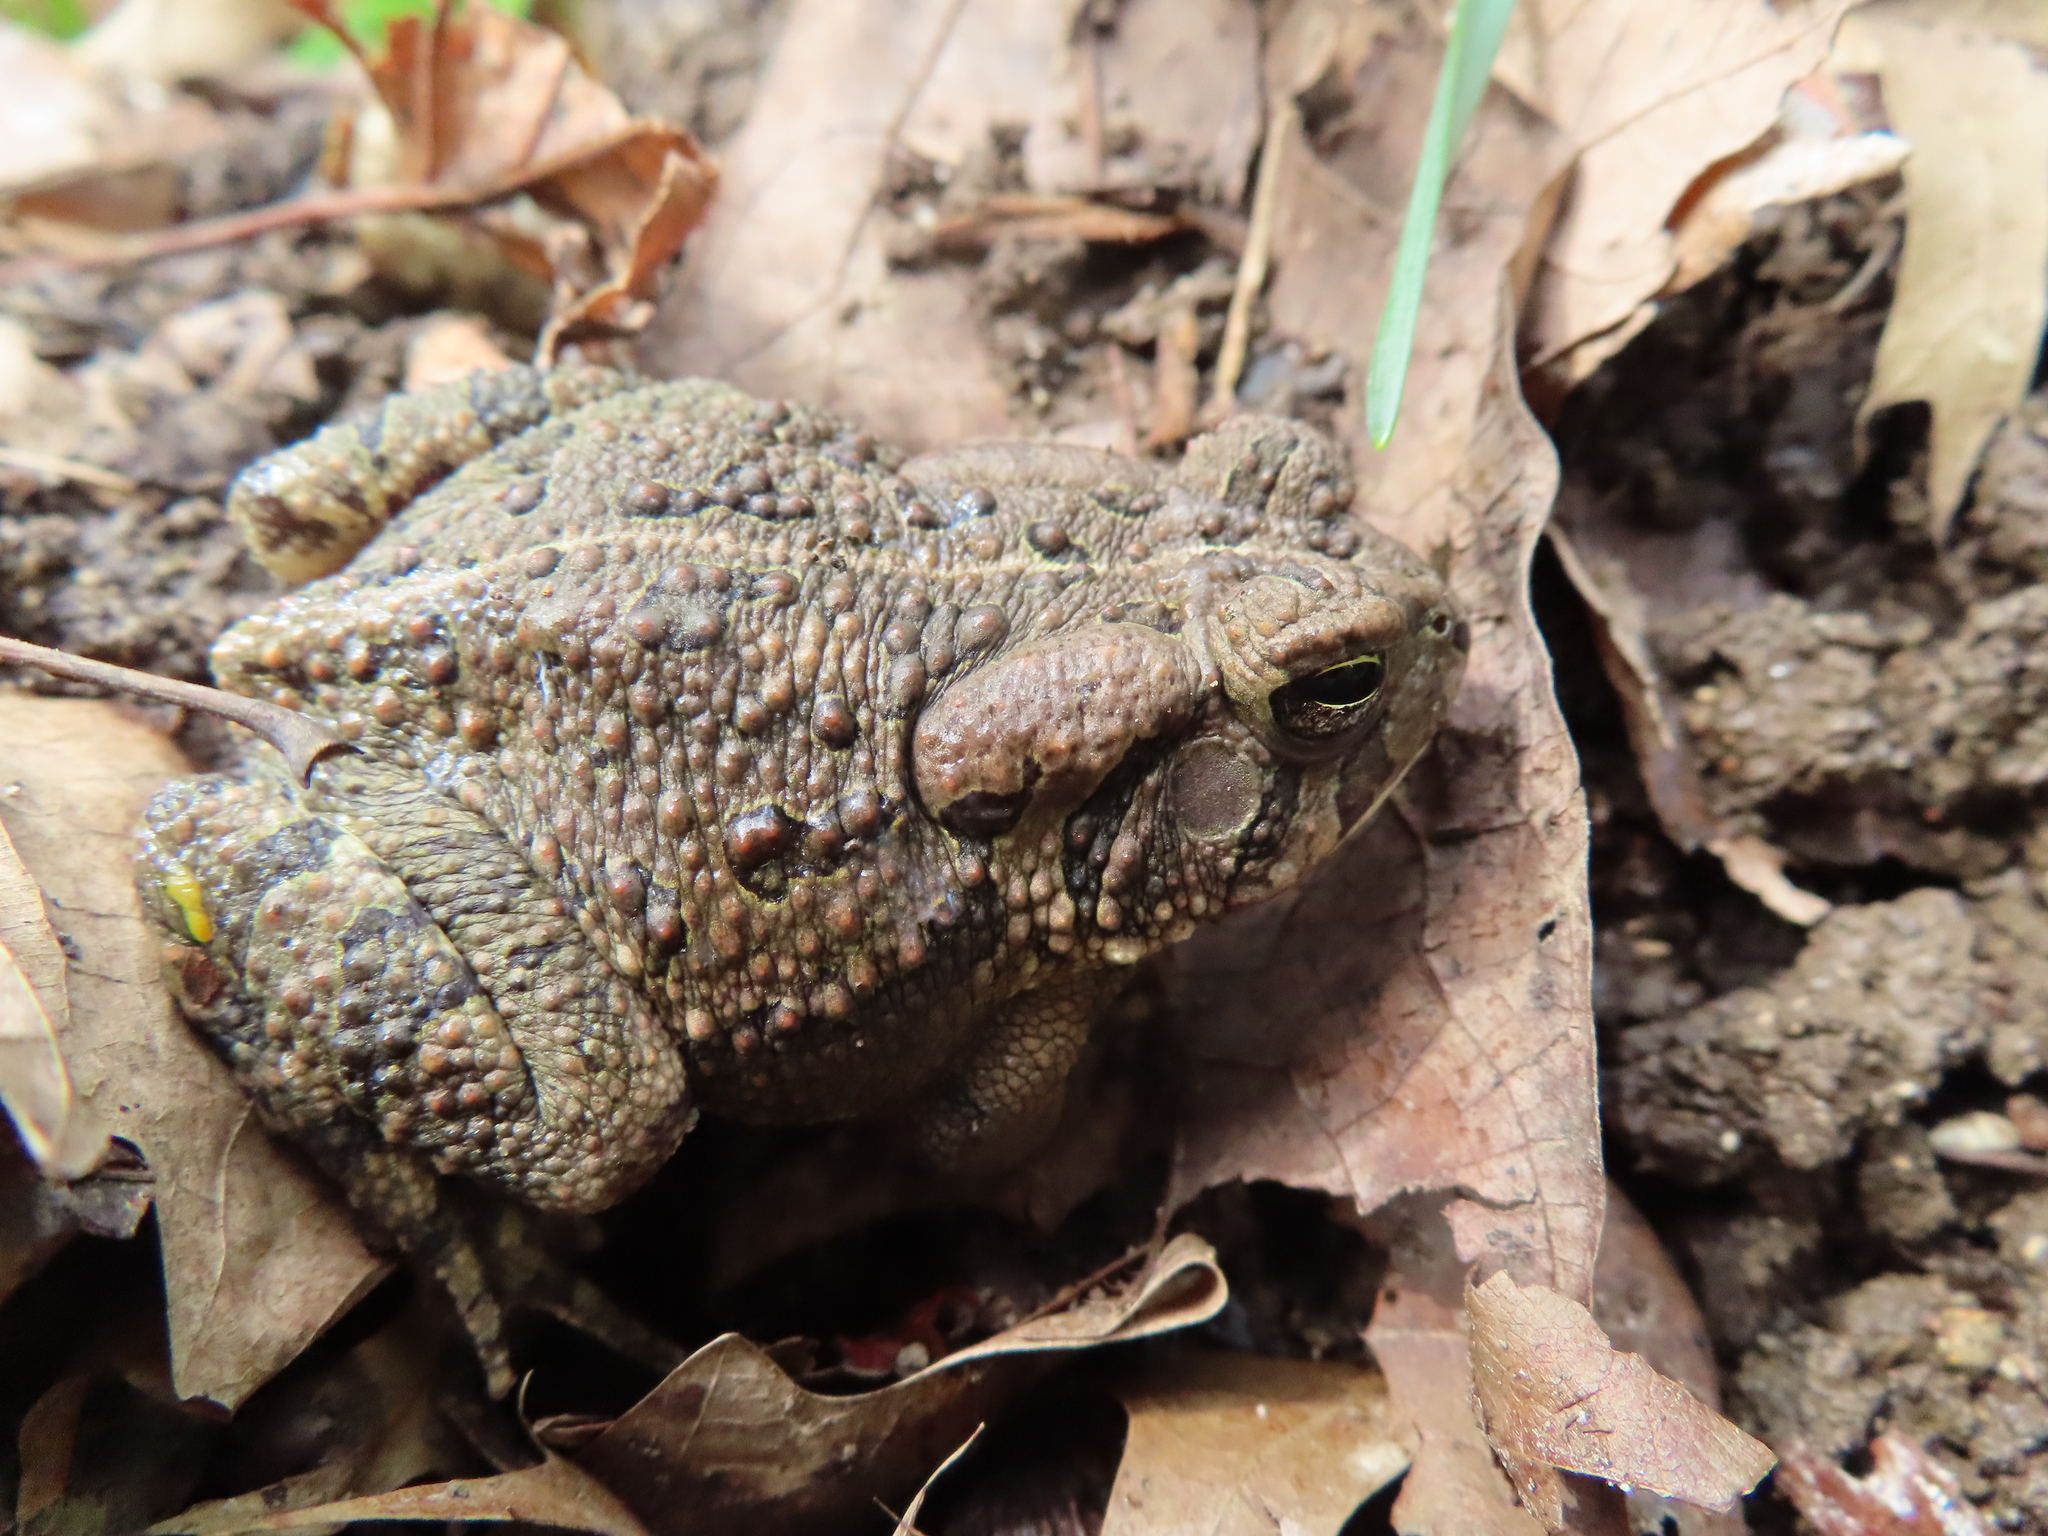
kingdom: Animalia
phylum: Chordata
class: Amphibia
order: Anura
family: Bufonidae
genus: Anaxyrus
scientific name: Anaxyrus fowleri
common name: Fowler's toad
